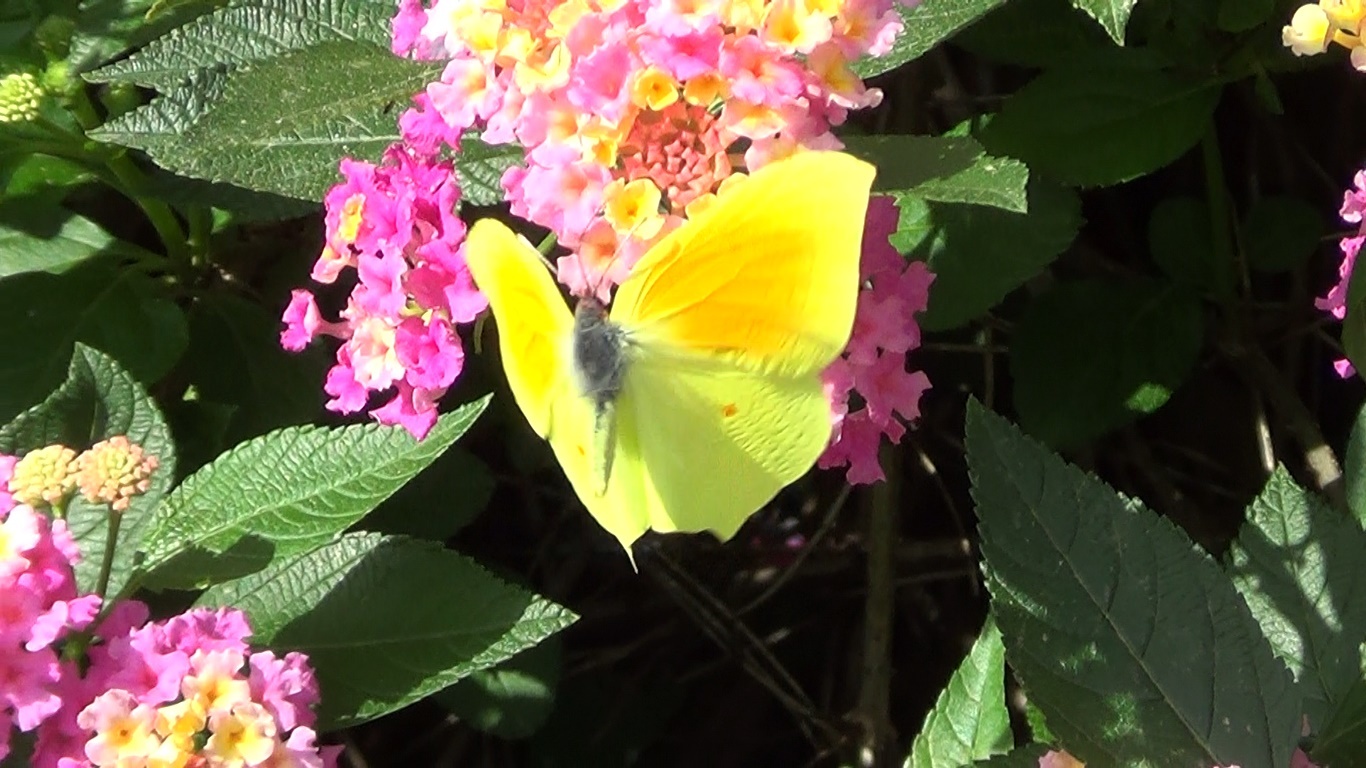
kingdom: Animalia
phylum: Arthropoda
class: Insecta
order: Lepidoptera
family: Pieridae
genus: Gonepteryx
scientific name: Gonepteryx cleopatra
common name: Cleopatra
